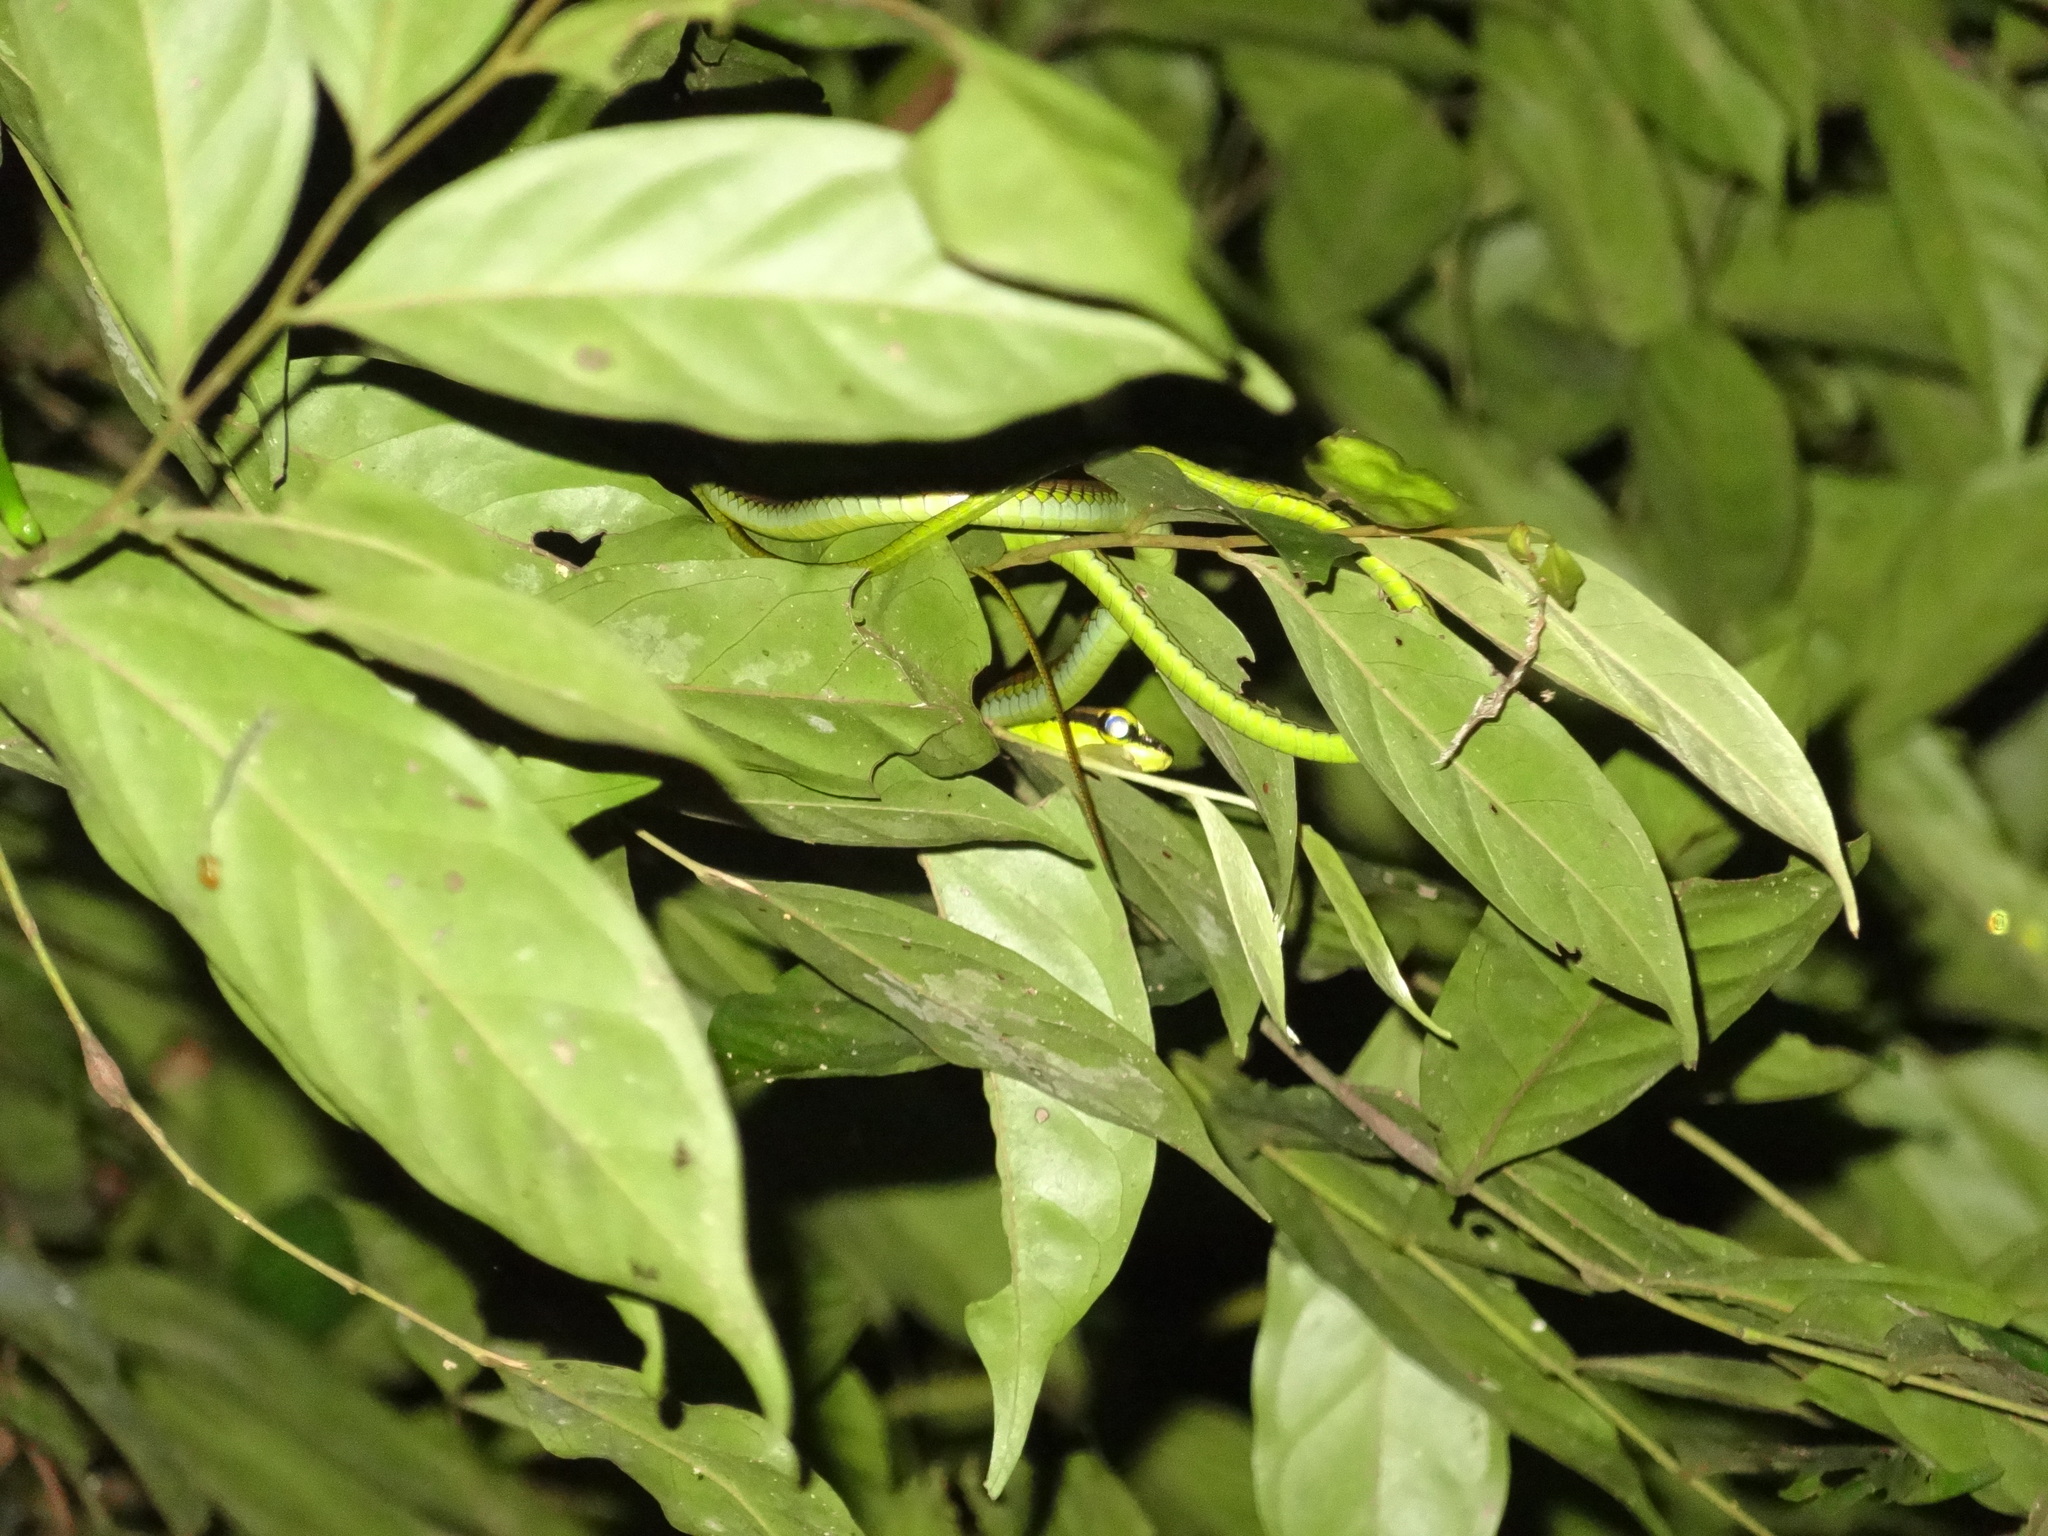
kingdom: Animalia
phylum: Chordata
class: Squamata
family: Colubridae
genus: Dendrelaphis
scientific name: Dendrelaphis formosus
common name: Elegant bronzeback
